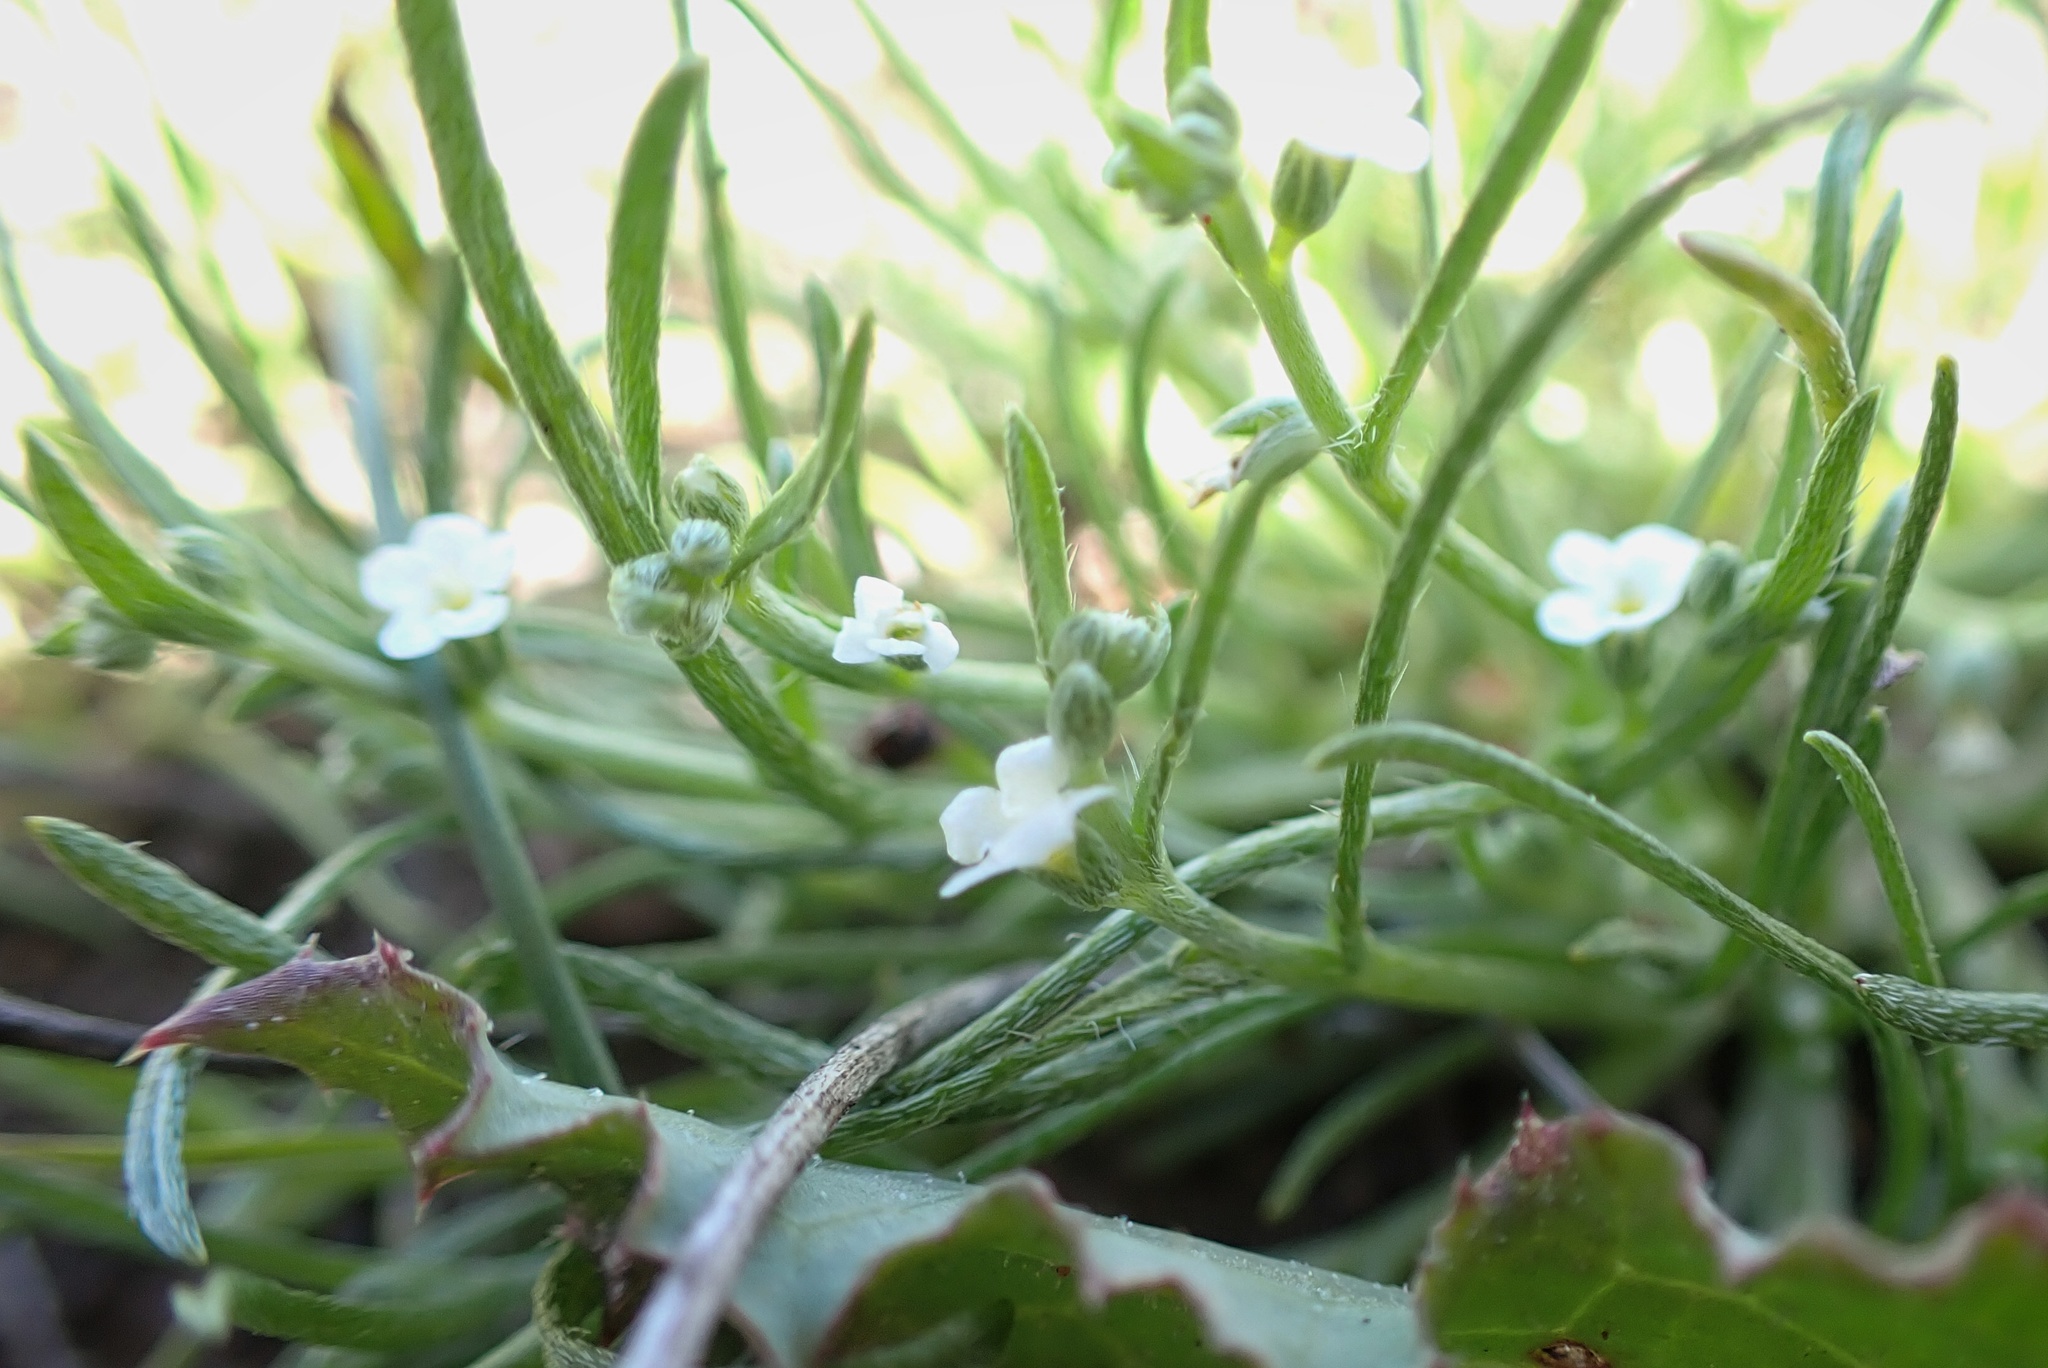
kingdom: Plantae
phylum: Tracheophyta
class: Magnoliopsida
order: Boraginales
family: Boraginaceae
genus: Pectocarya
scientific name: Pectocarya linearis
